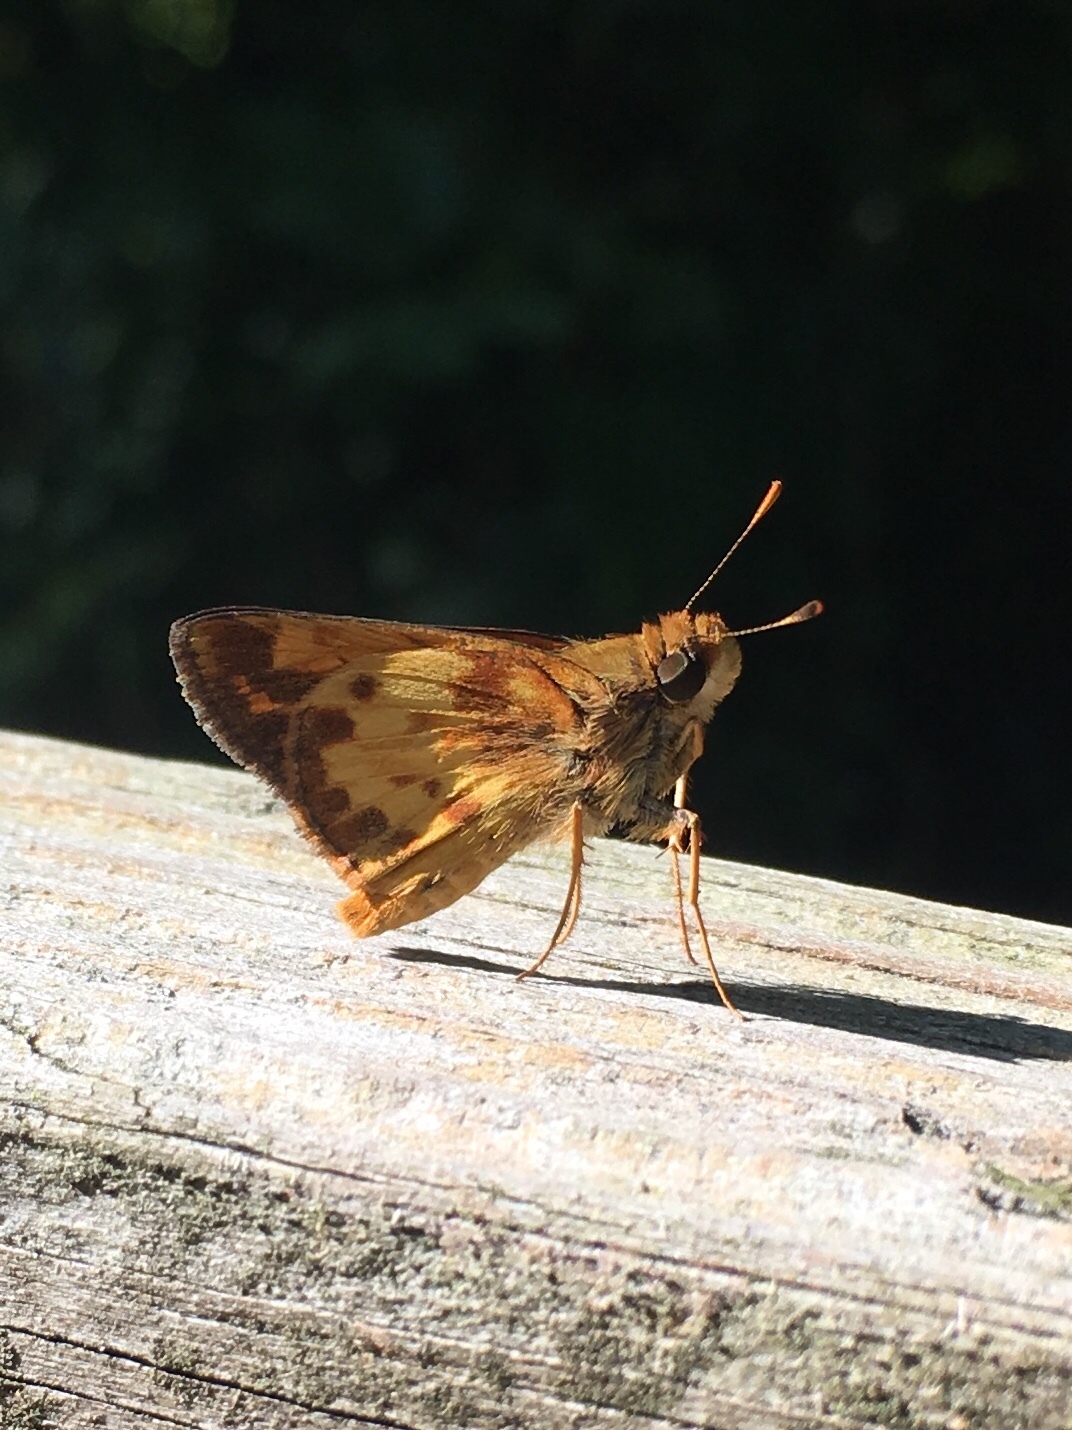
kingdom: Animalia
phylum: Arthropoda
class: Insecta
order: Lepidoptera
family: Hesperiidae
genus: Lon
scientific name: Lon zabulon
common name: Zabulon skipper
